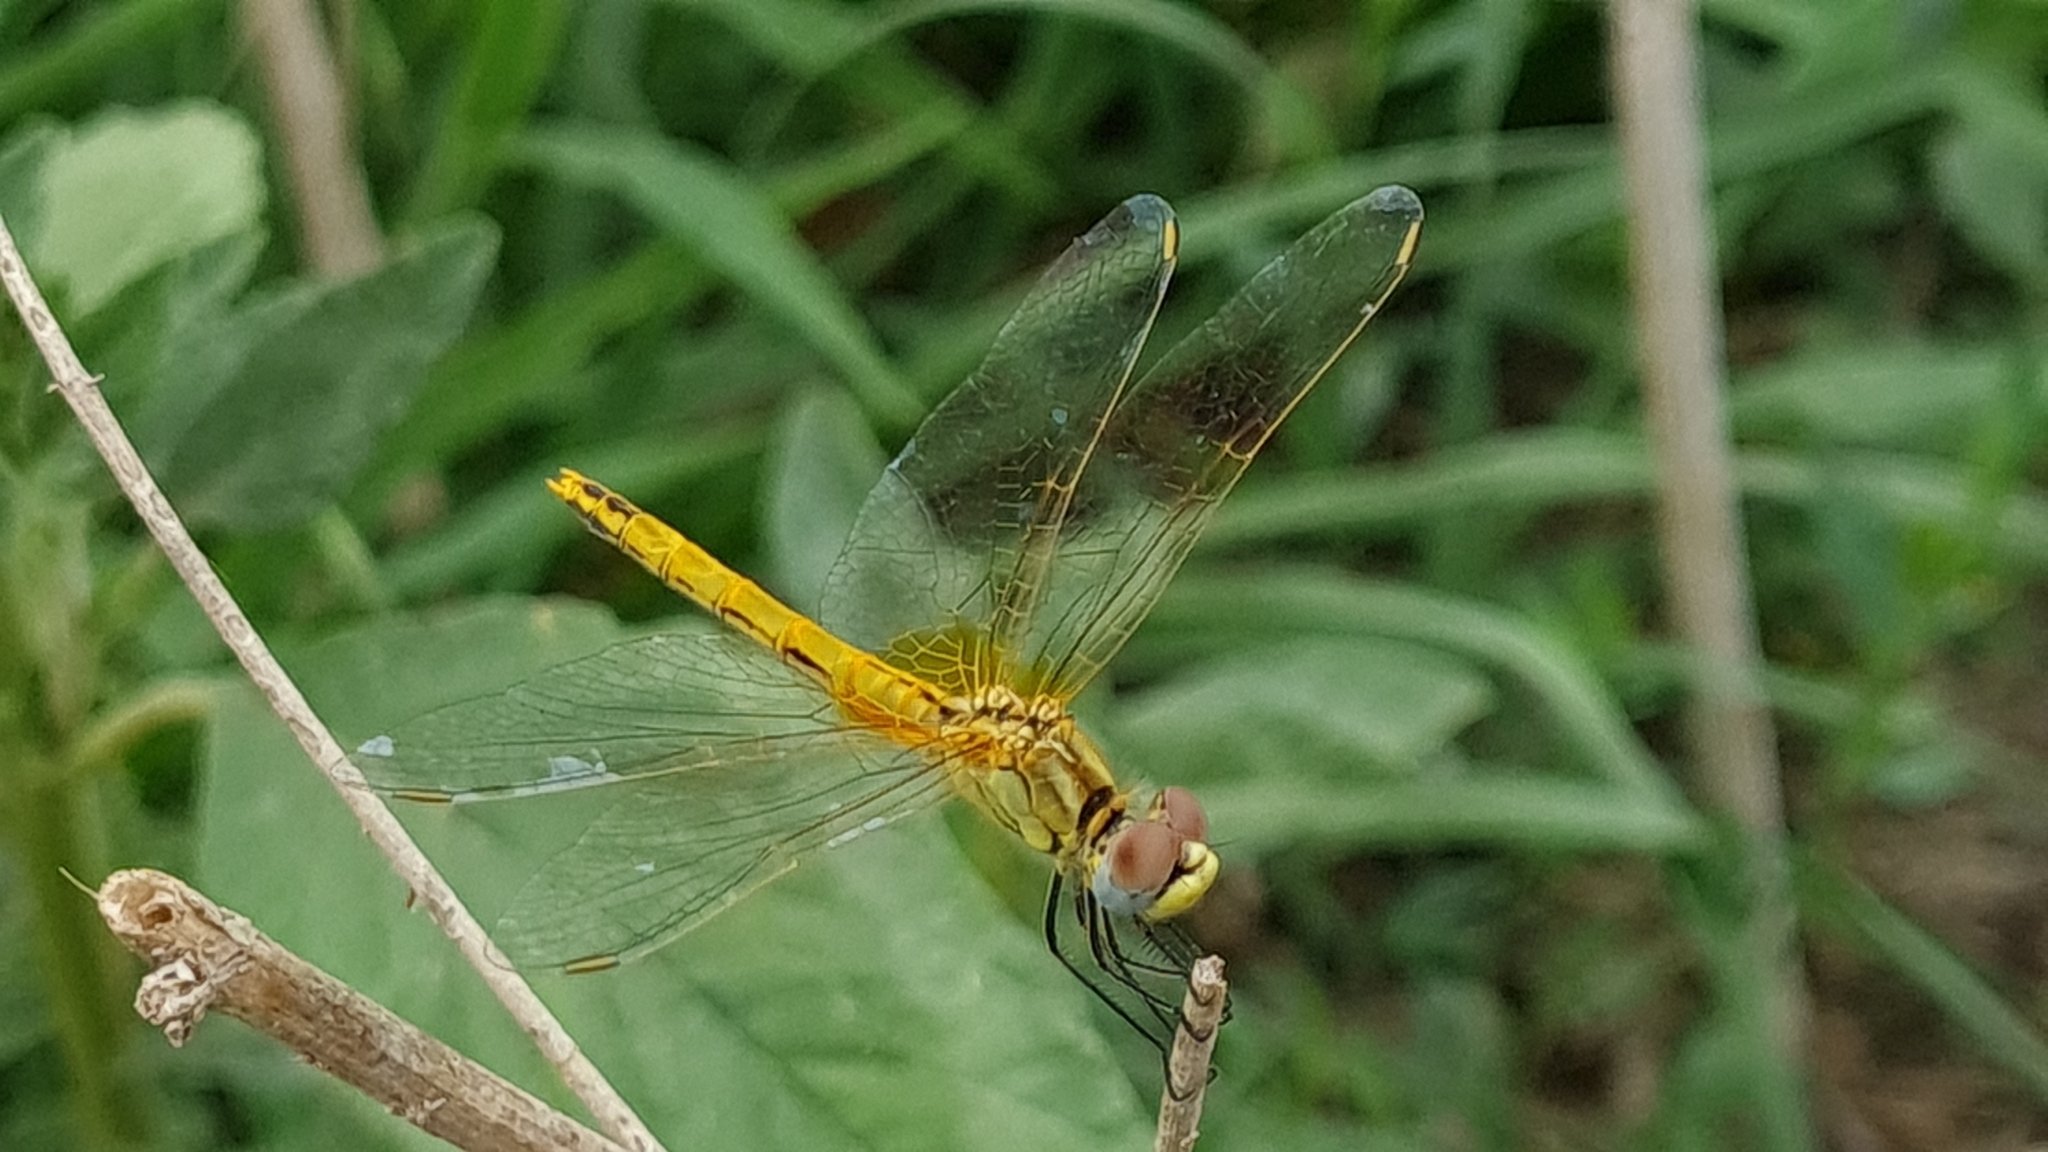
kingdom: Animalia
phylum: Arthropoda
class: Insecta
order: Odonata
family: Libellulidae
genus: Sympetrum
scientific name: Sympetrum fonscolombii
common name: Red-veined darter
